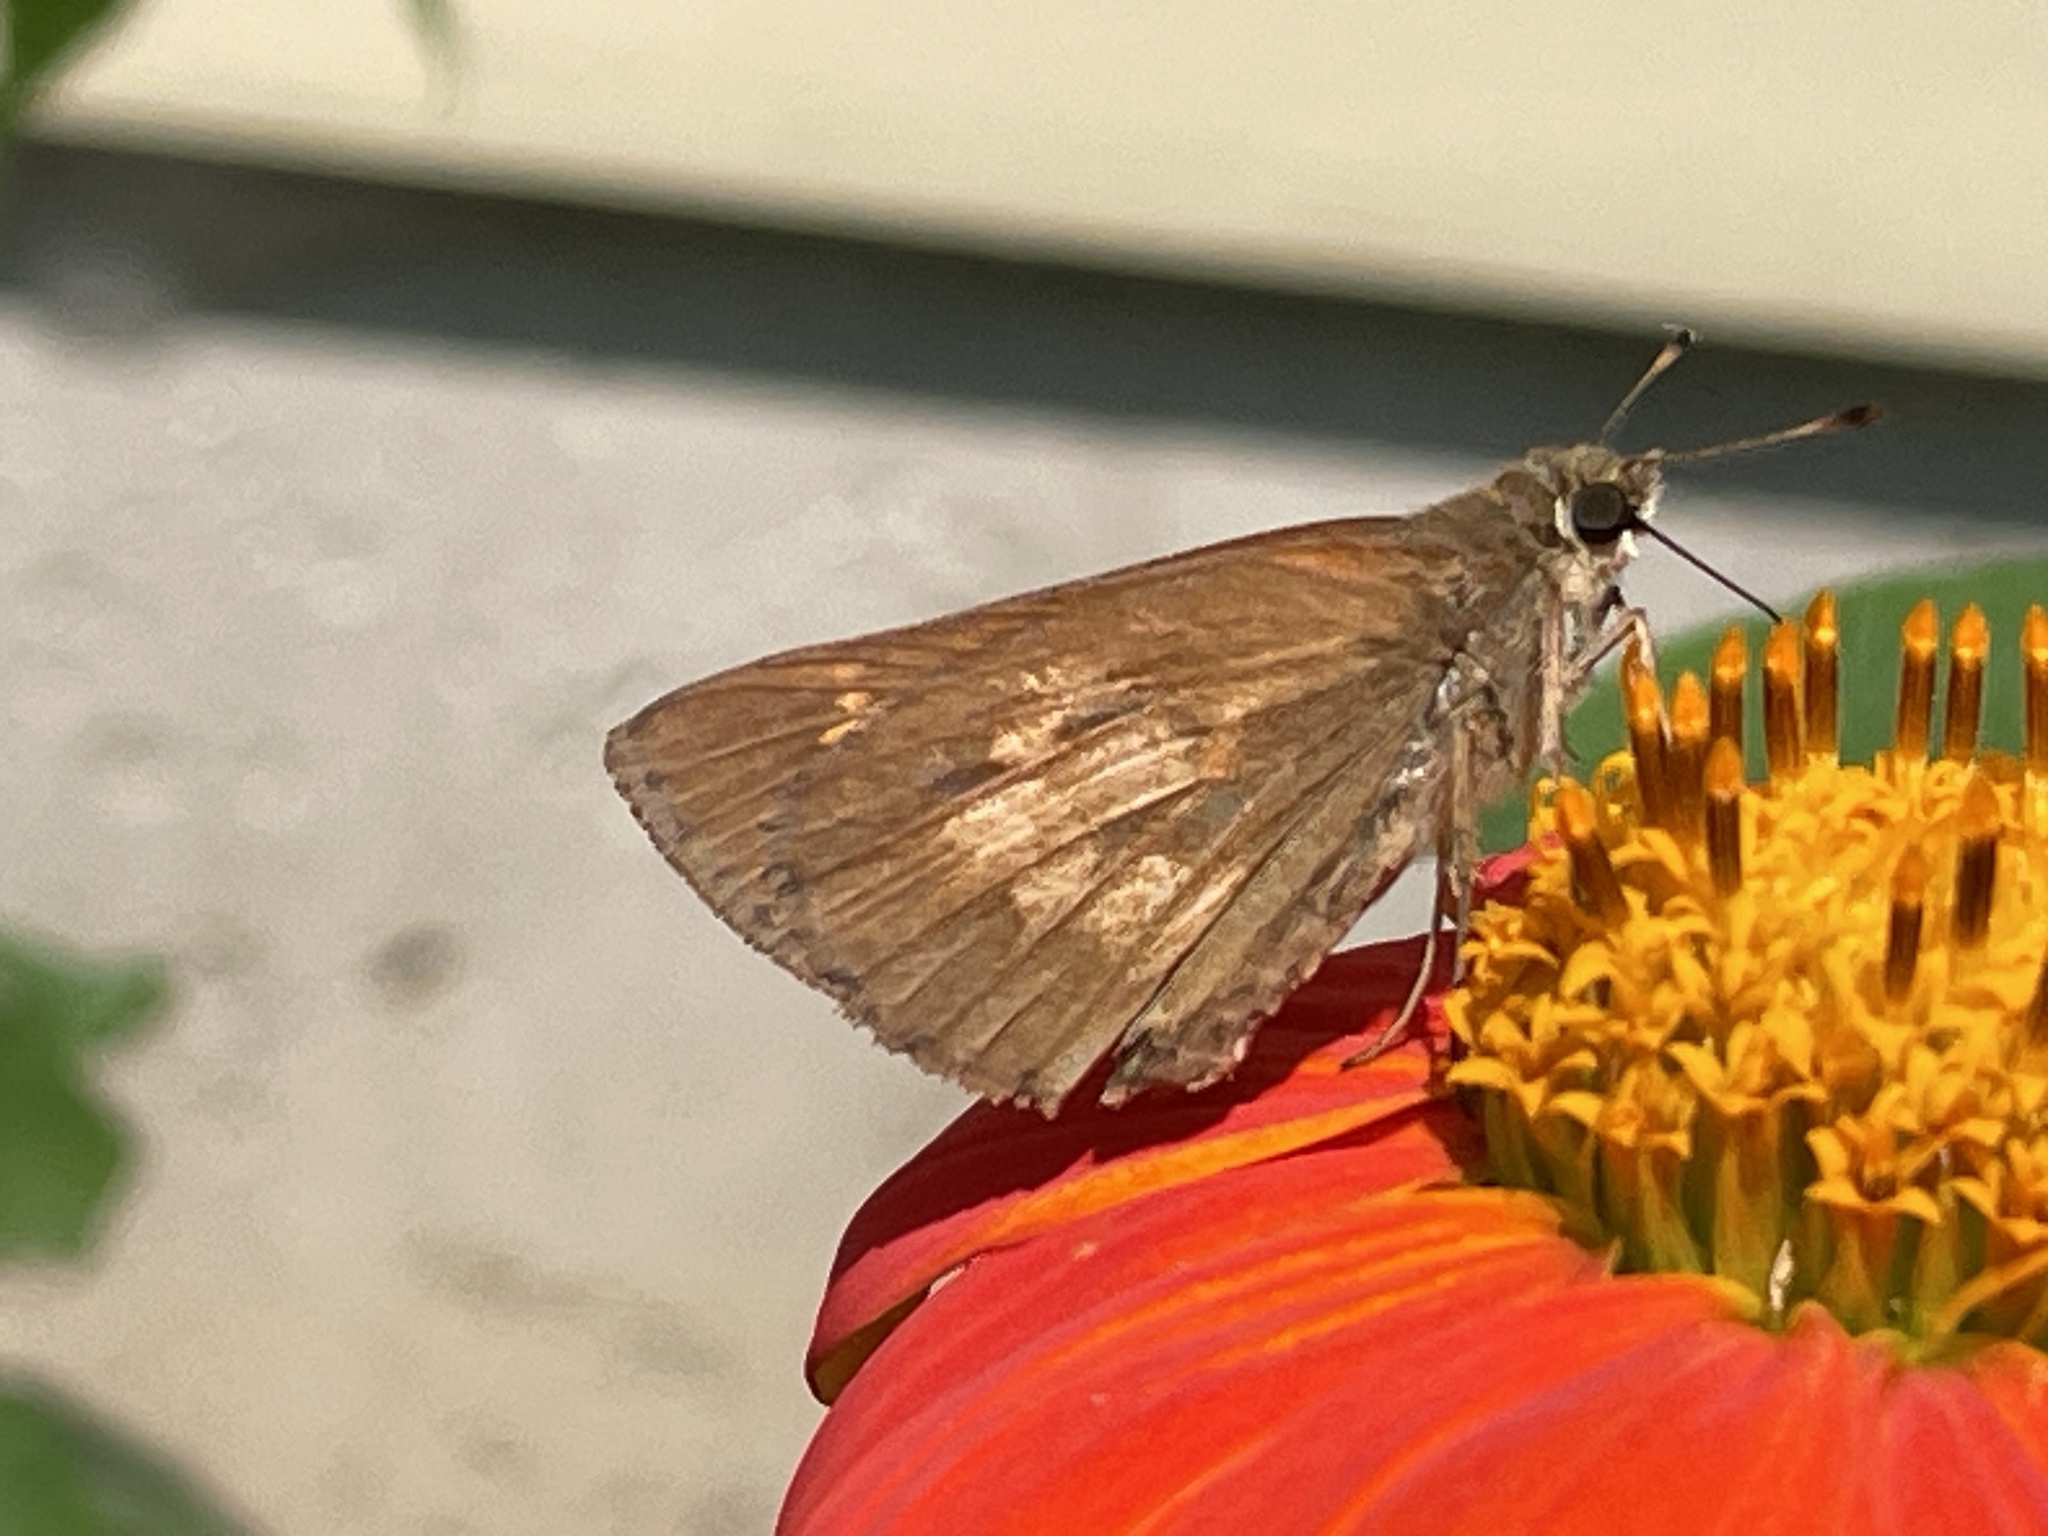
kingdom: Animalia
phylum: Arthropoda
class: Insecta
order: Lepidoptera
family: Hesperiidae
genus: Poanes
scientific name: Poanes viator
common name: Broad-winged skipper
